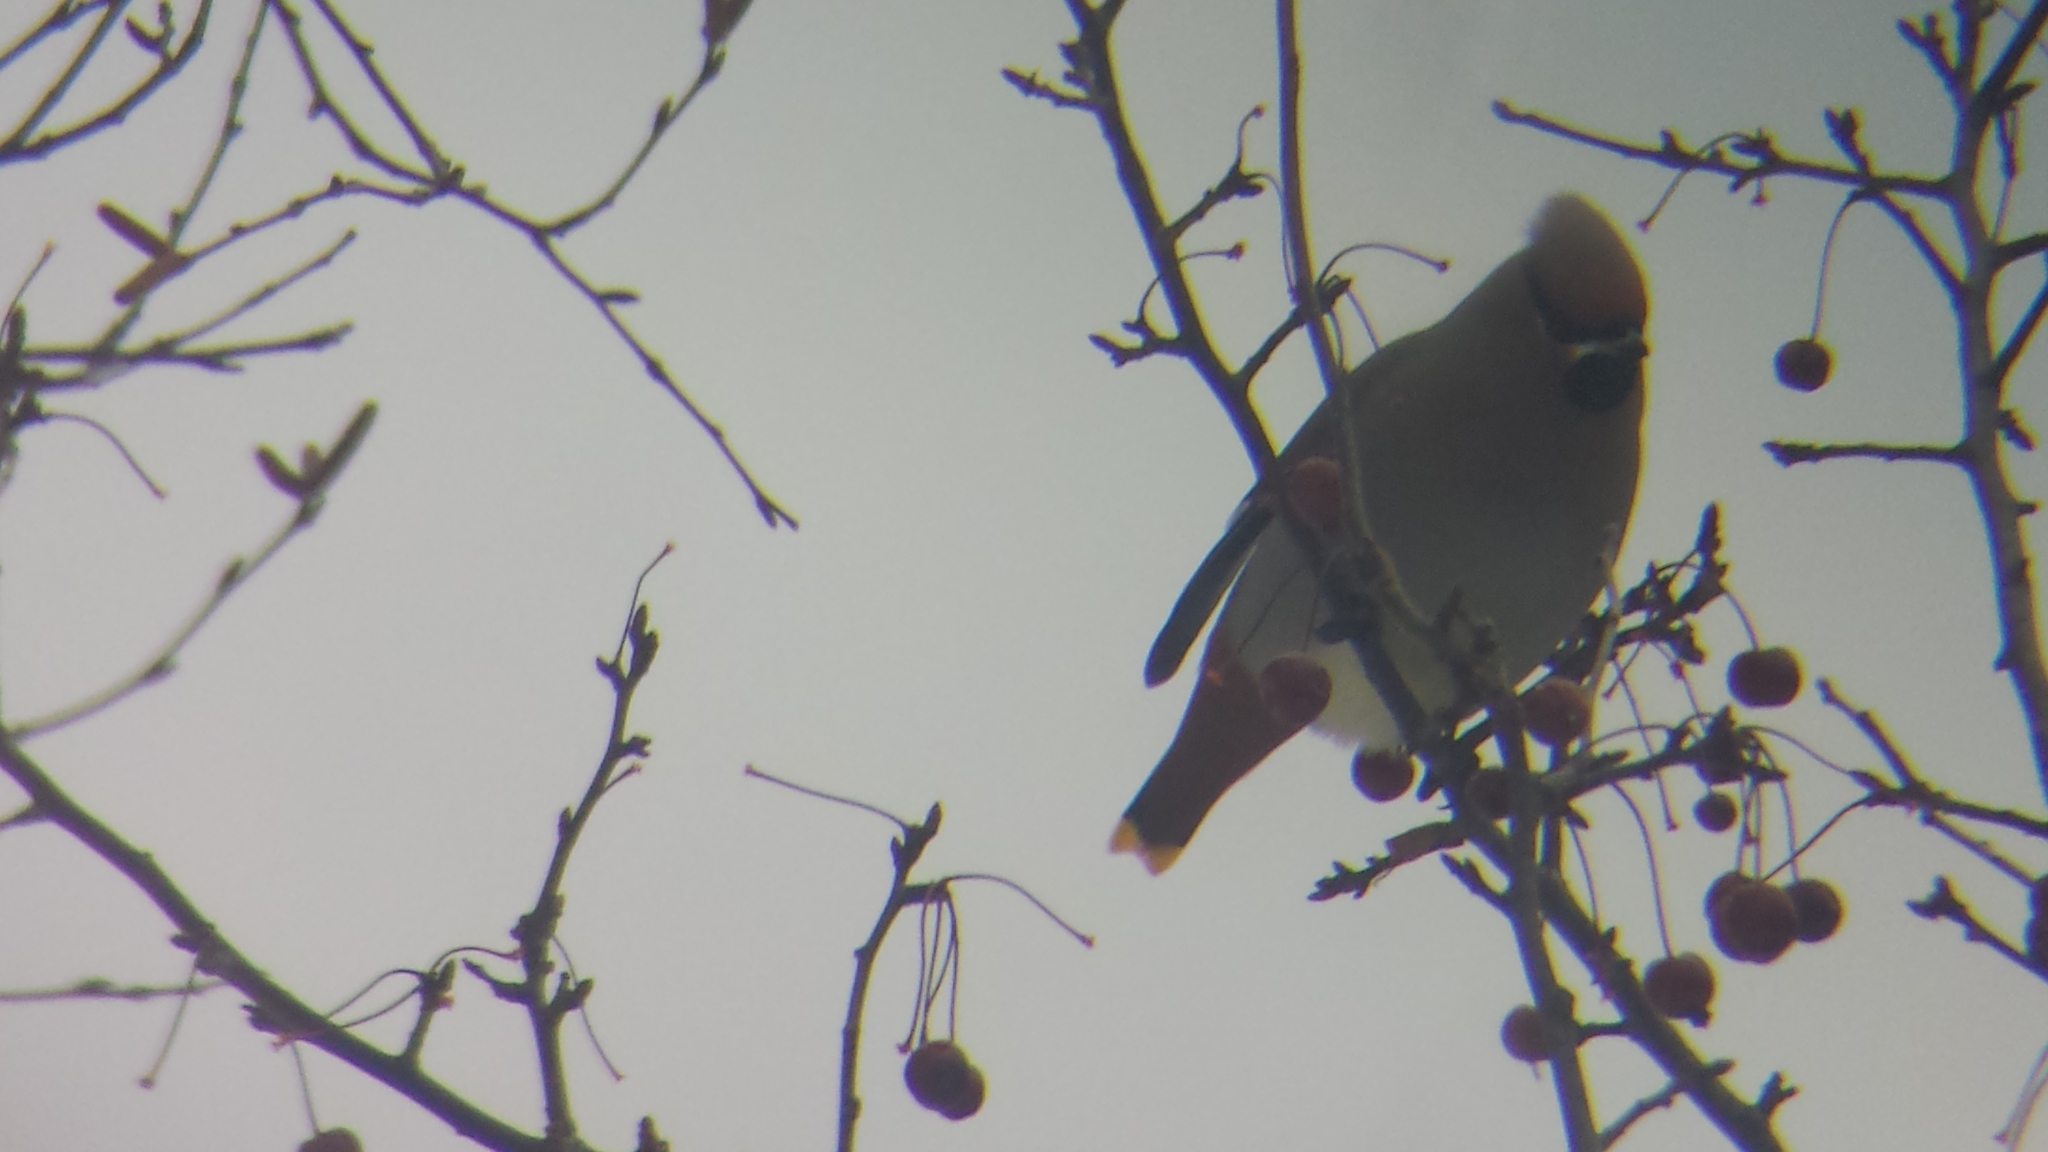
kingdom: Animalia
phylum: Chordata
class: Aves
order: Passeriformes
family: Bombycillidae
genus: Bombycilla
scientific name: Bombycilla garrulus
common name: Bohemian waxwing
